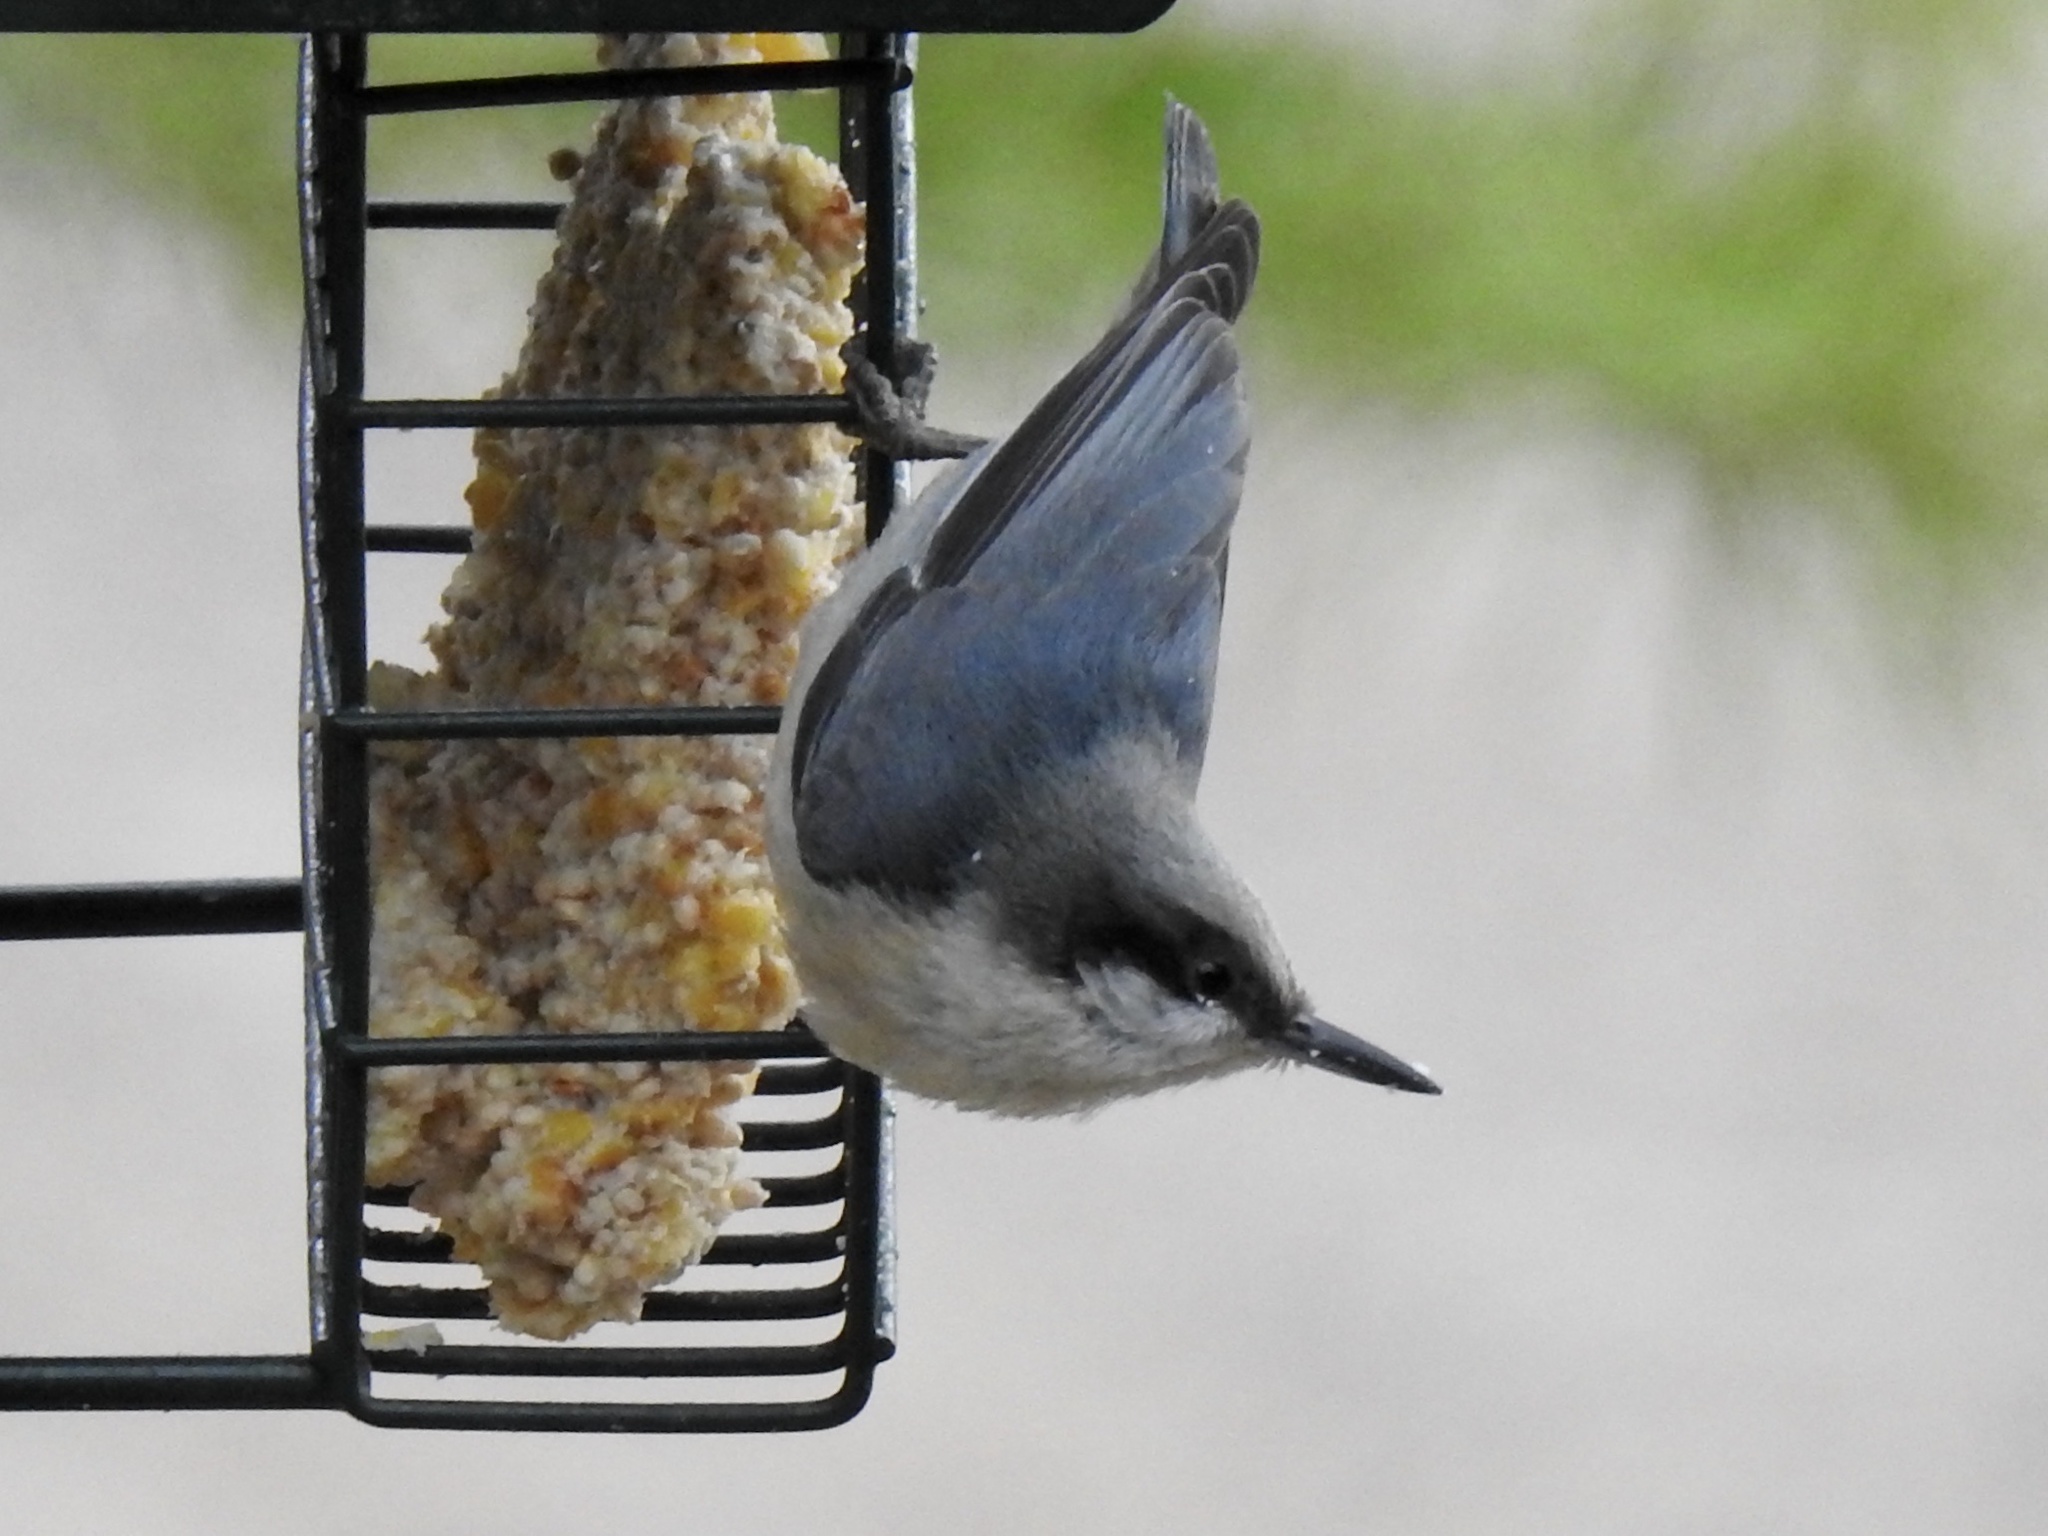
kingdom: Animalia
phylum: Chordata
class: Aves
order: Passeriformes
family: Sittidae
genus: Sitta
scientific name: Sitta pygmaea
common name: Pygmy nuthatch
